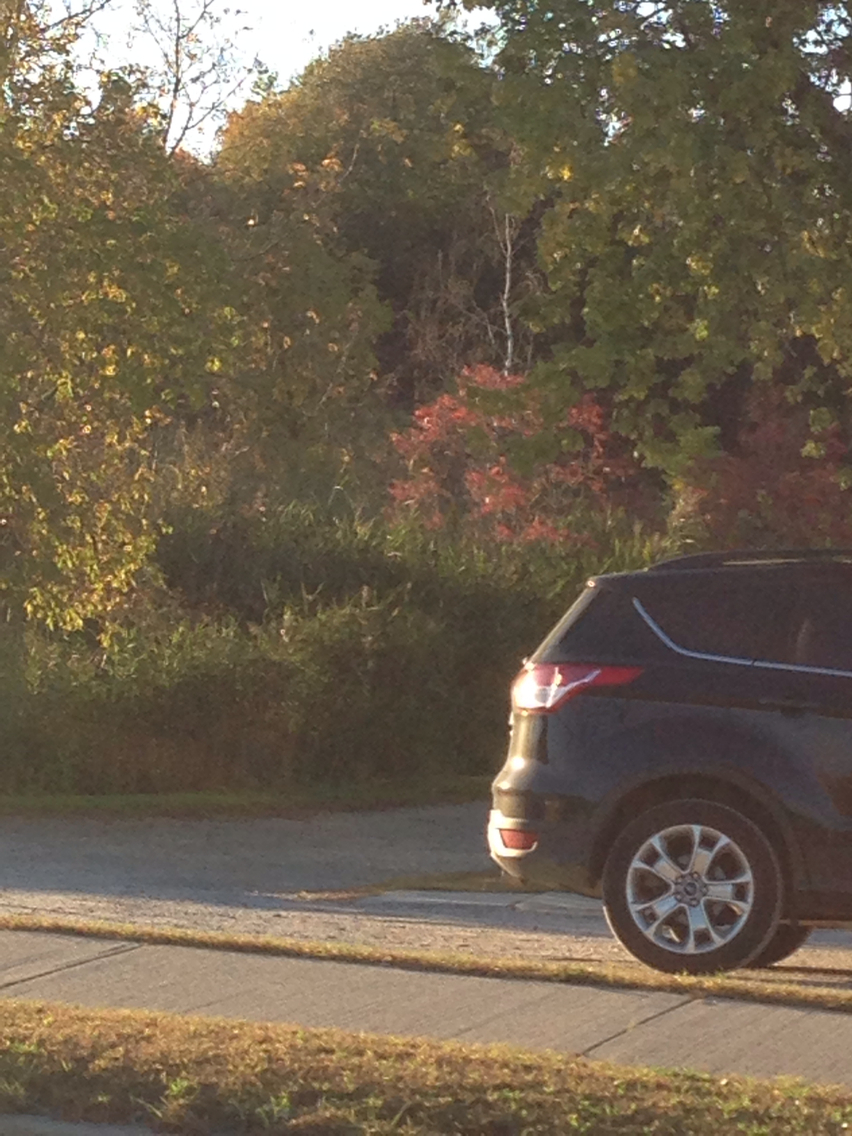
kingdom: Plantae
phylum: Tracheophyta
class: Liliopsida
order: Poales
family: Poaceae
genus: Phragmites
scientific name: Phragmites australis
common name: Common reed
